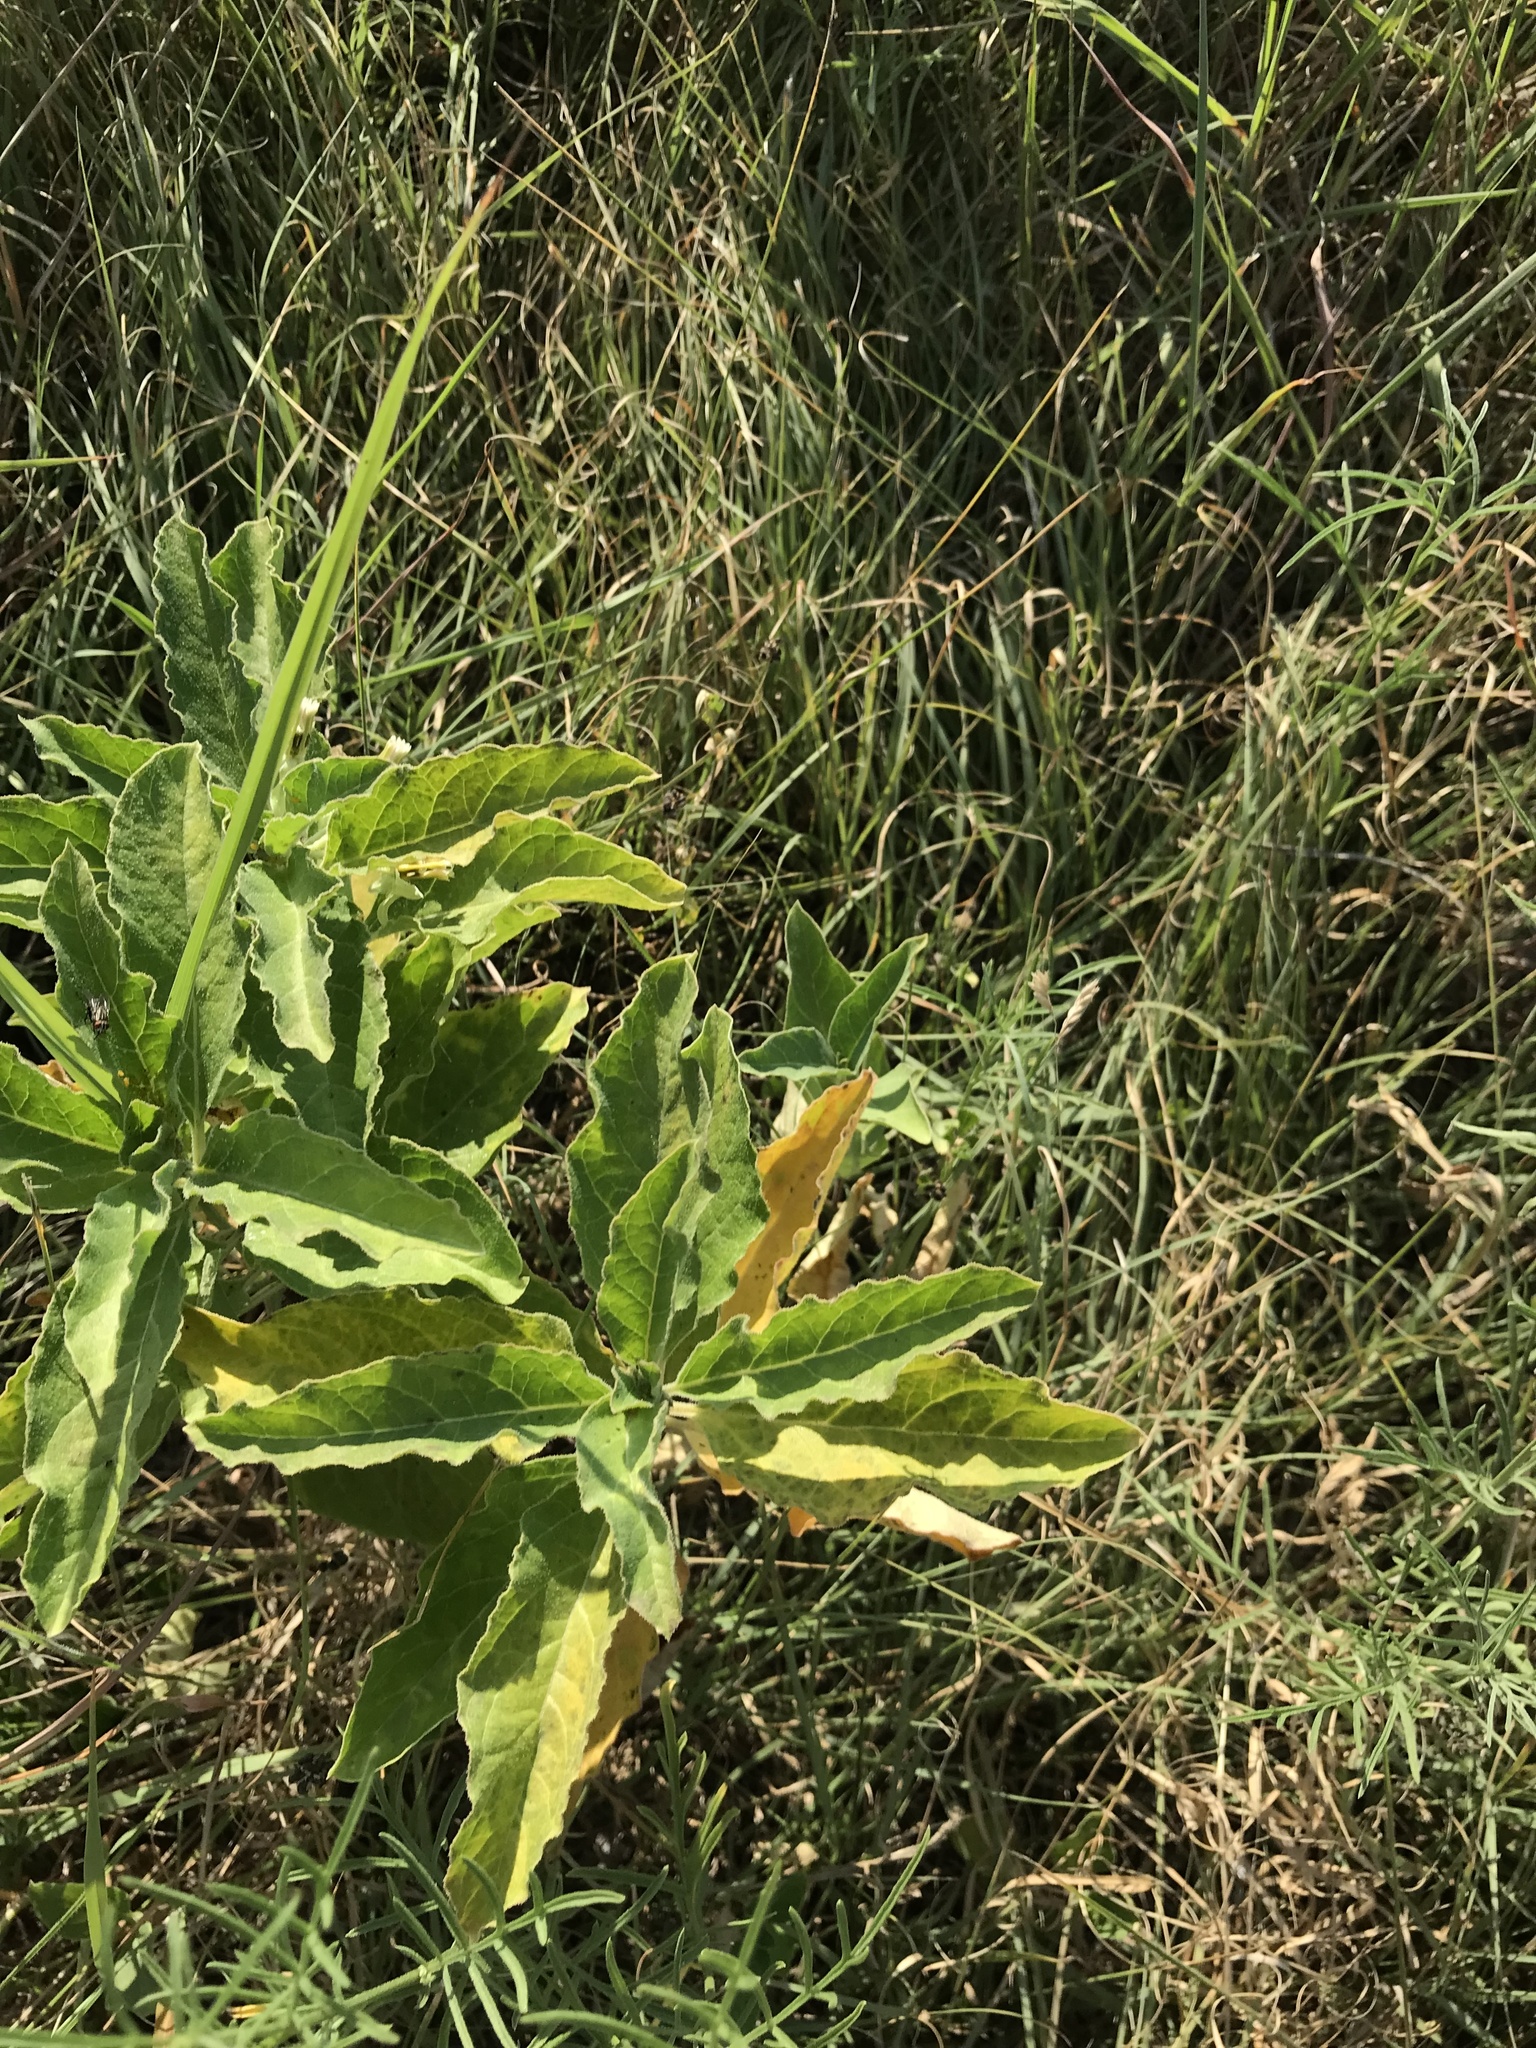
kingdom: Plantae
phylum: Tracheophyta
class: Magnoliopsida
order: Gentianales
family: Apocynaceae
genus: Asclepias
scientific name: Asclepias oenotheroides
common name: Zizotes milkweed
